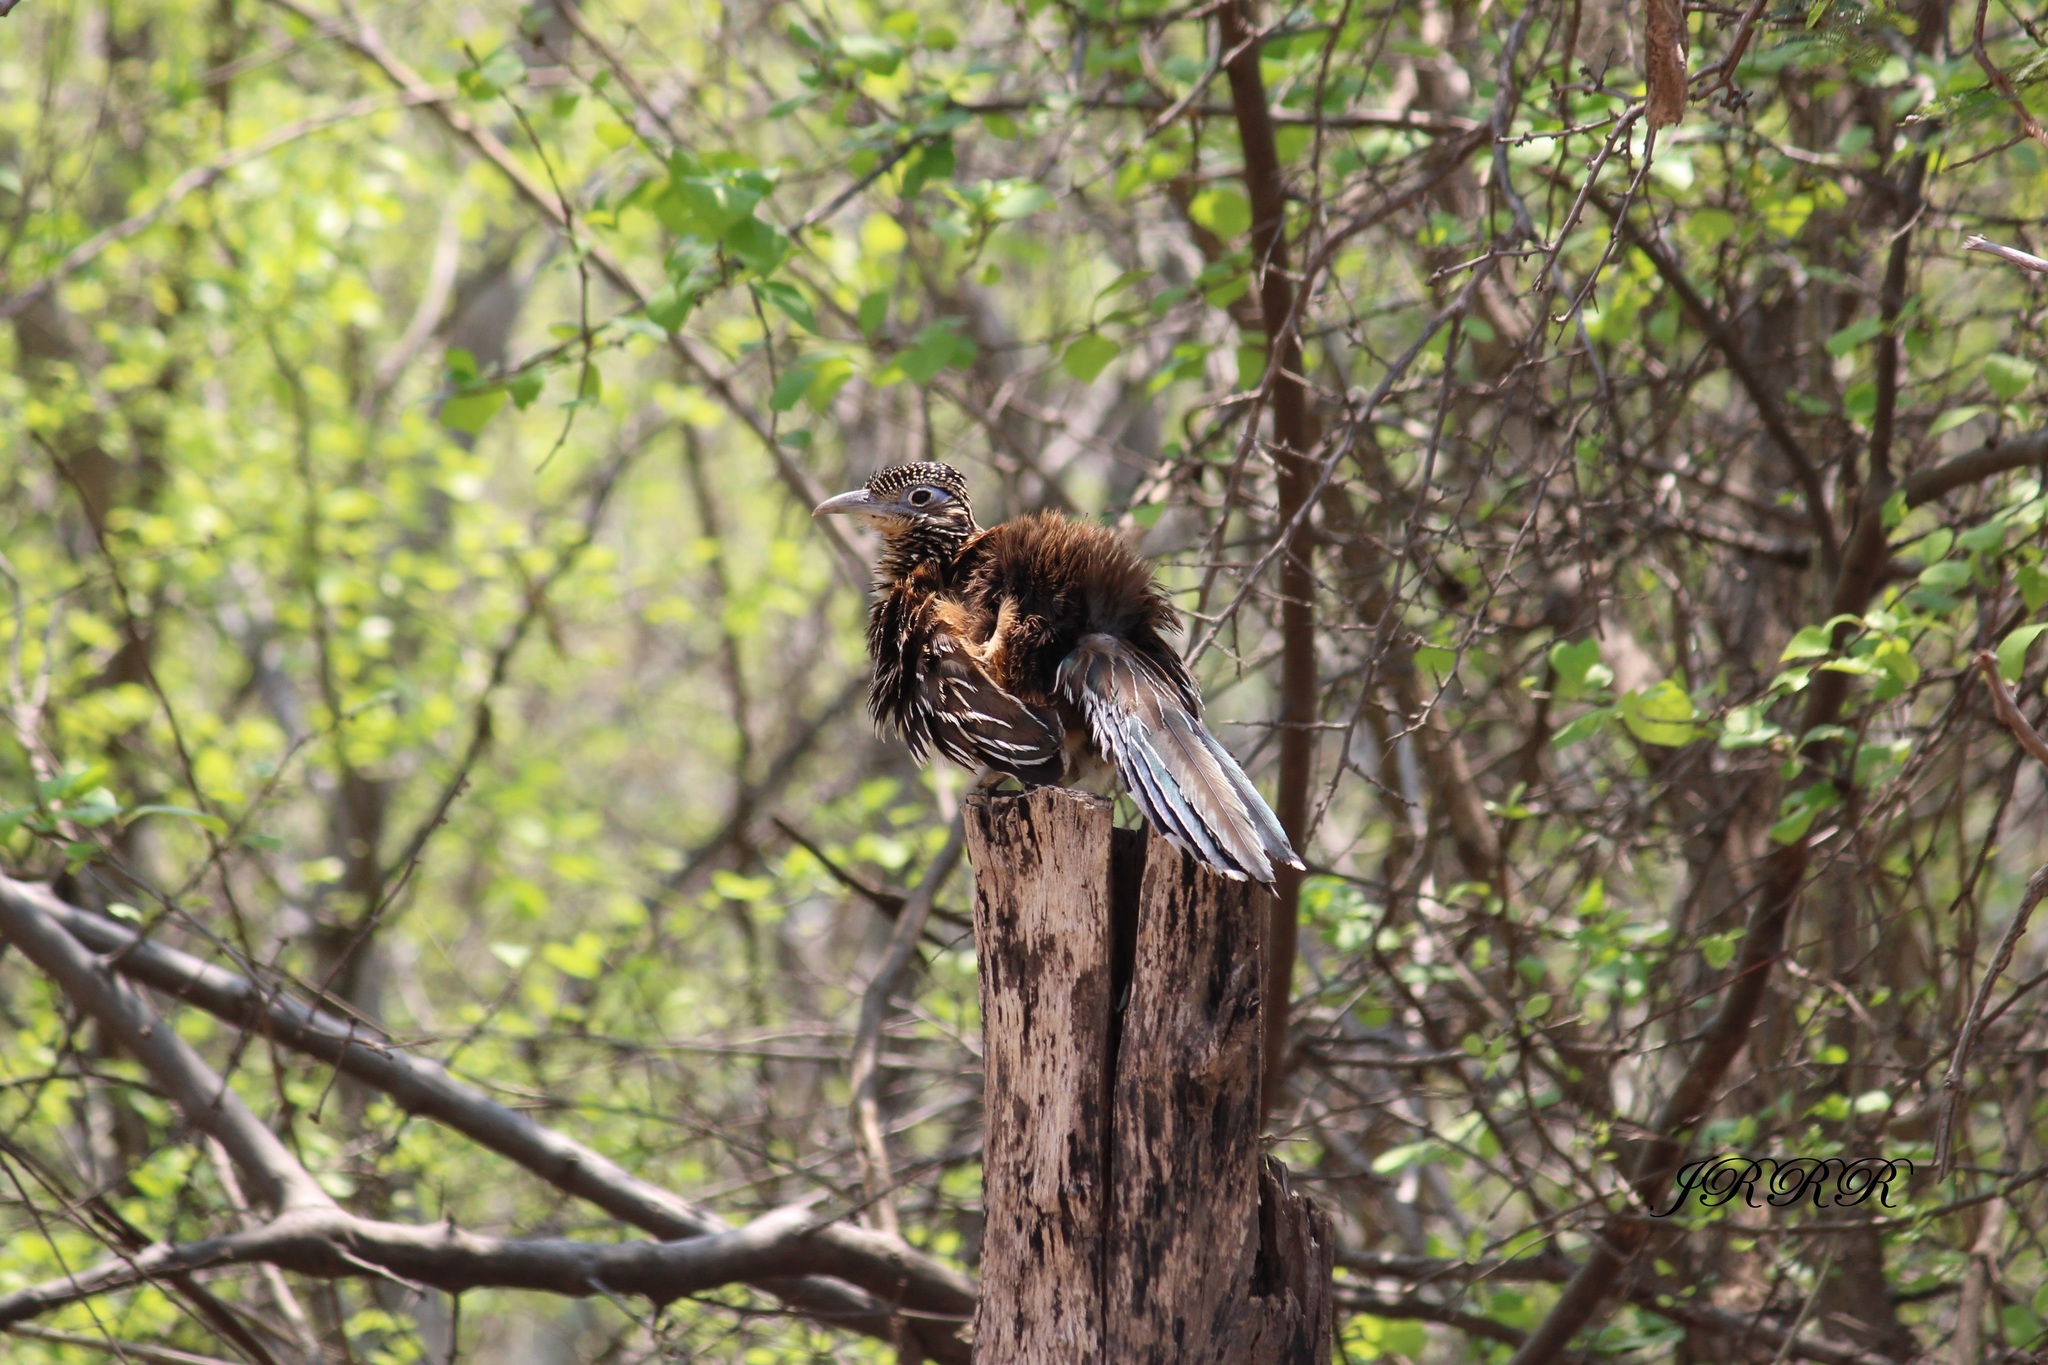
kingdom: Animalia
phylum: Chordata
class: Aves
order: Cuculiformes
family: Cuculidae
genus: Geococcyx
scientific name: Geococcyx velox
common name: Lesser roadrunner
